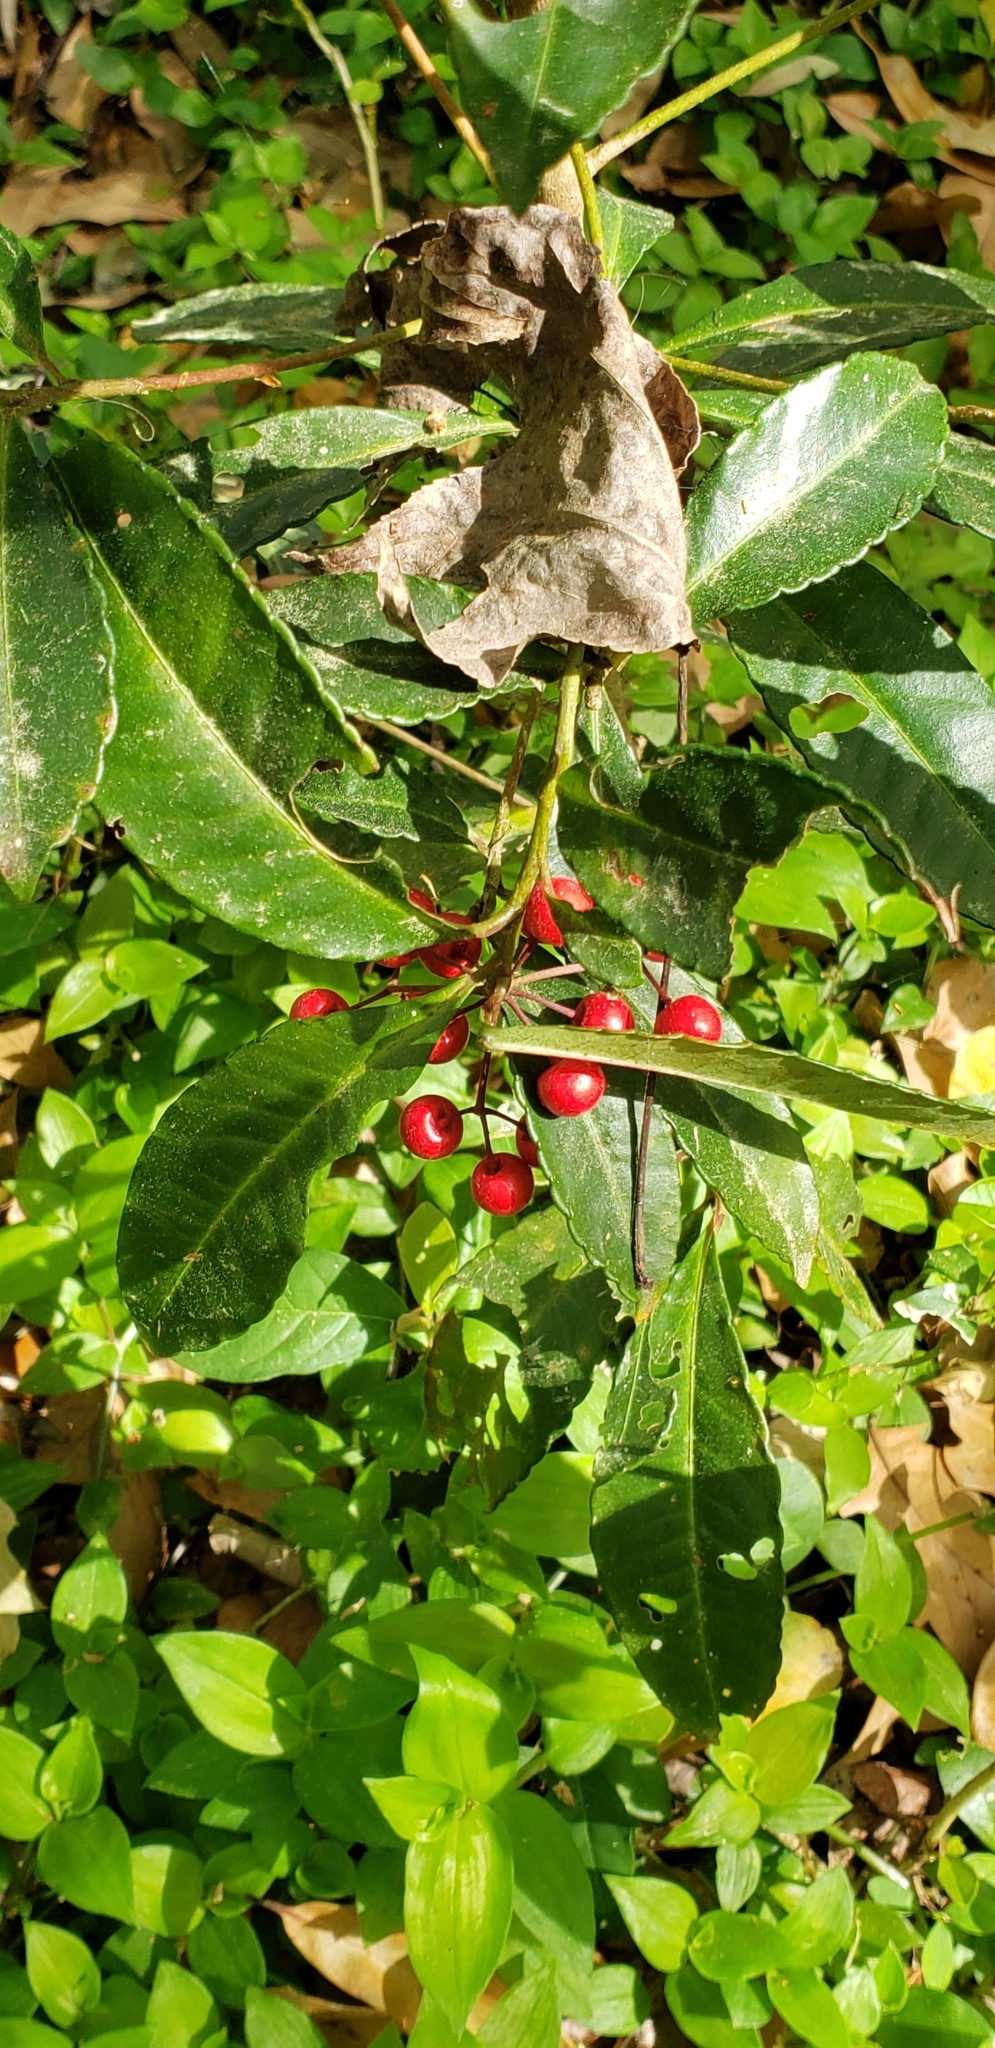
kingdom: Plantae
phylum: Tracheophyta
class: Magnoliopsida
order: Ericales
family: Primulaceae
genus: Ardisia
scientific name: Ardisia crenata
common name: Hen's eyes
